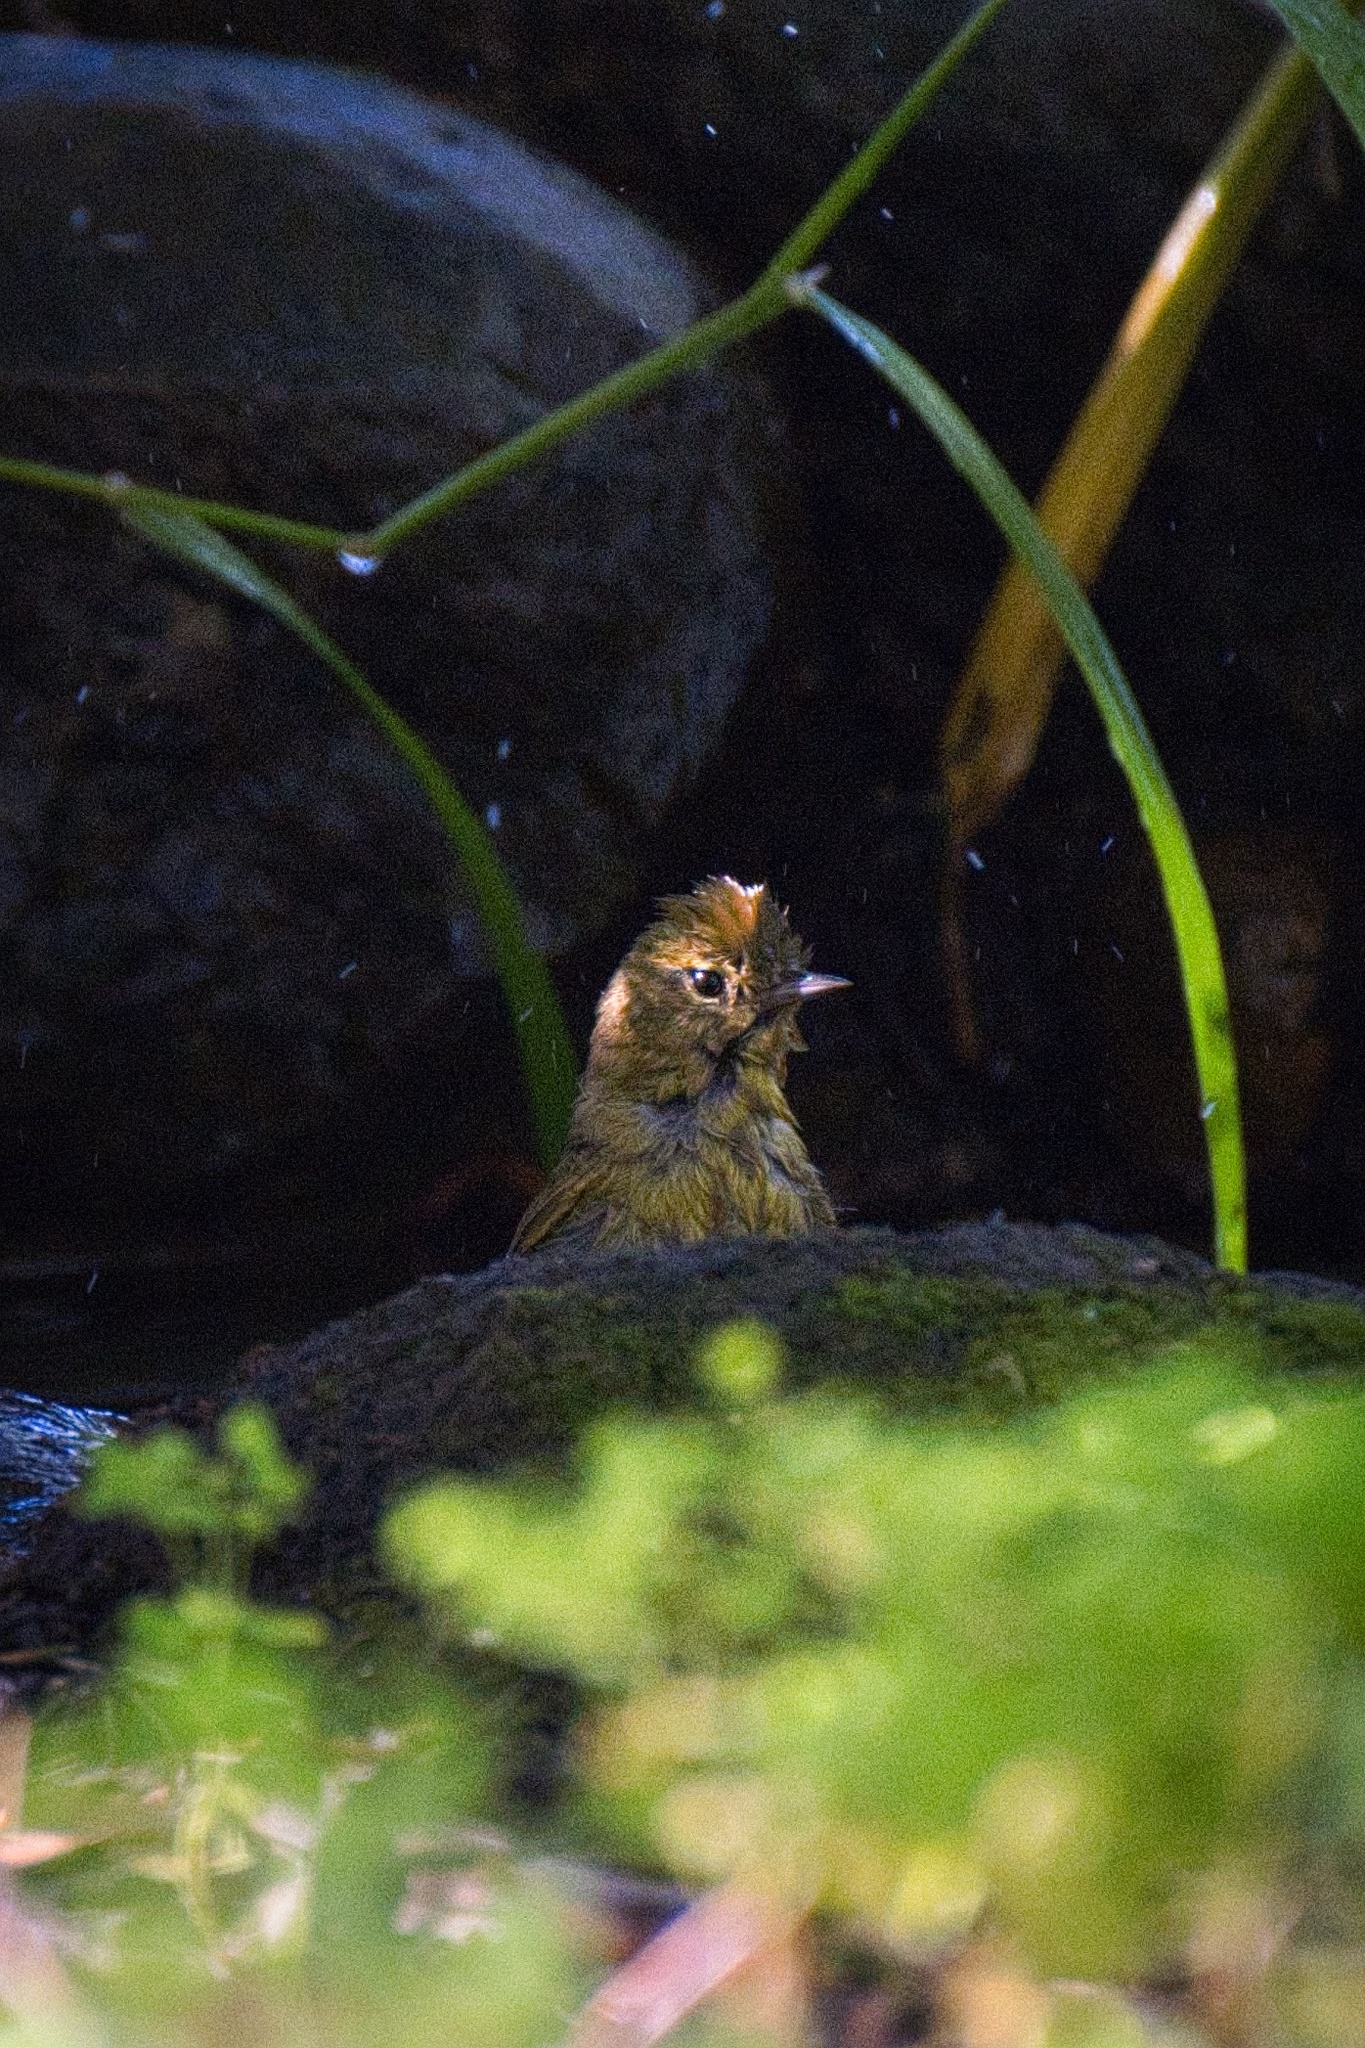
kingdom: Animalia
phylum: Chordata
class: Aves
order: Passeriformes
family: Parulidae
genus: Leiothlypis
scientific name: Leiothlypis celata
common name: Orange-crowned warbler
